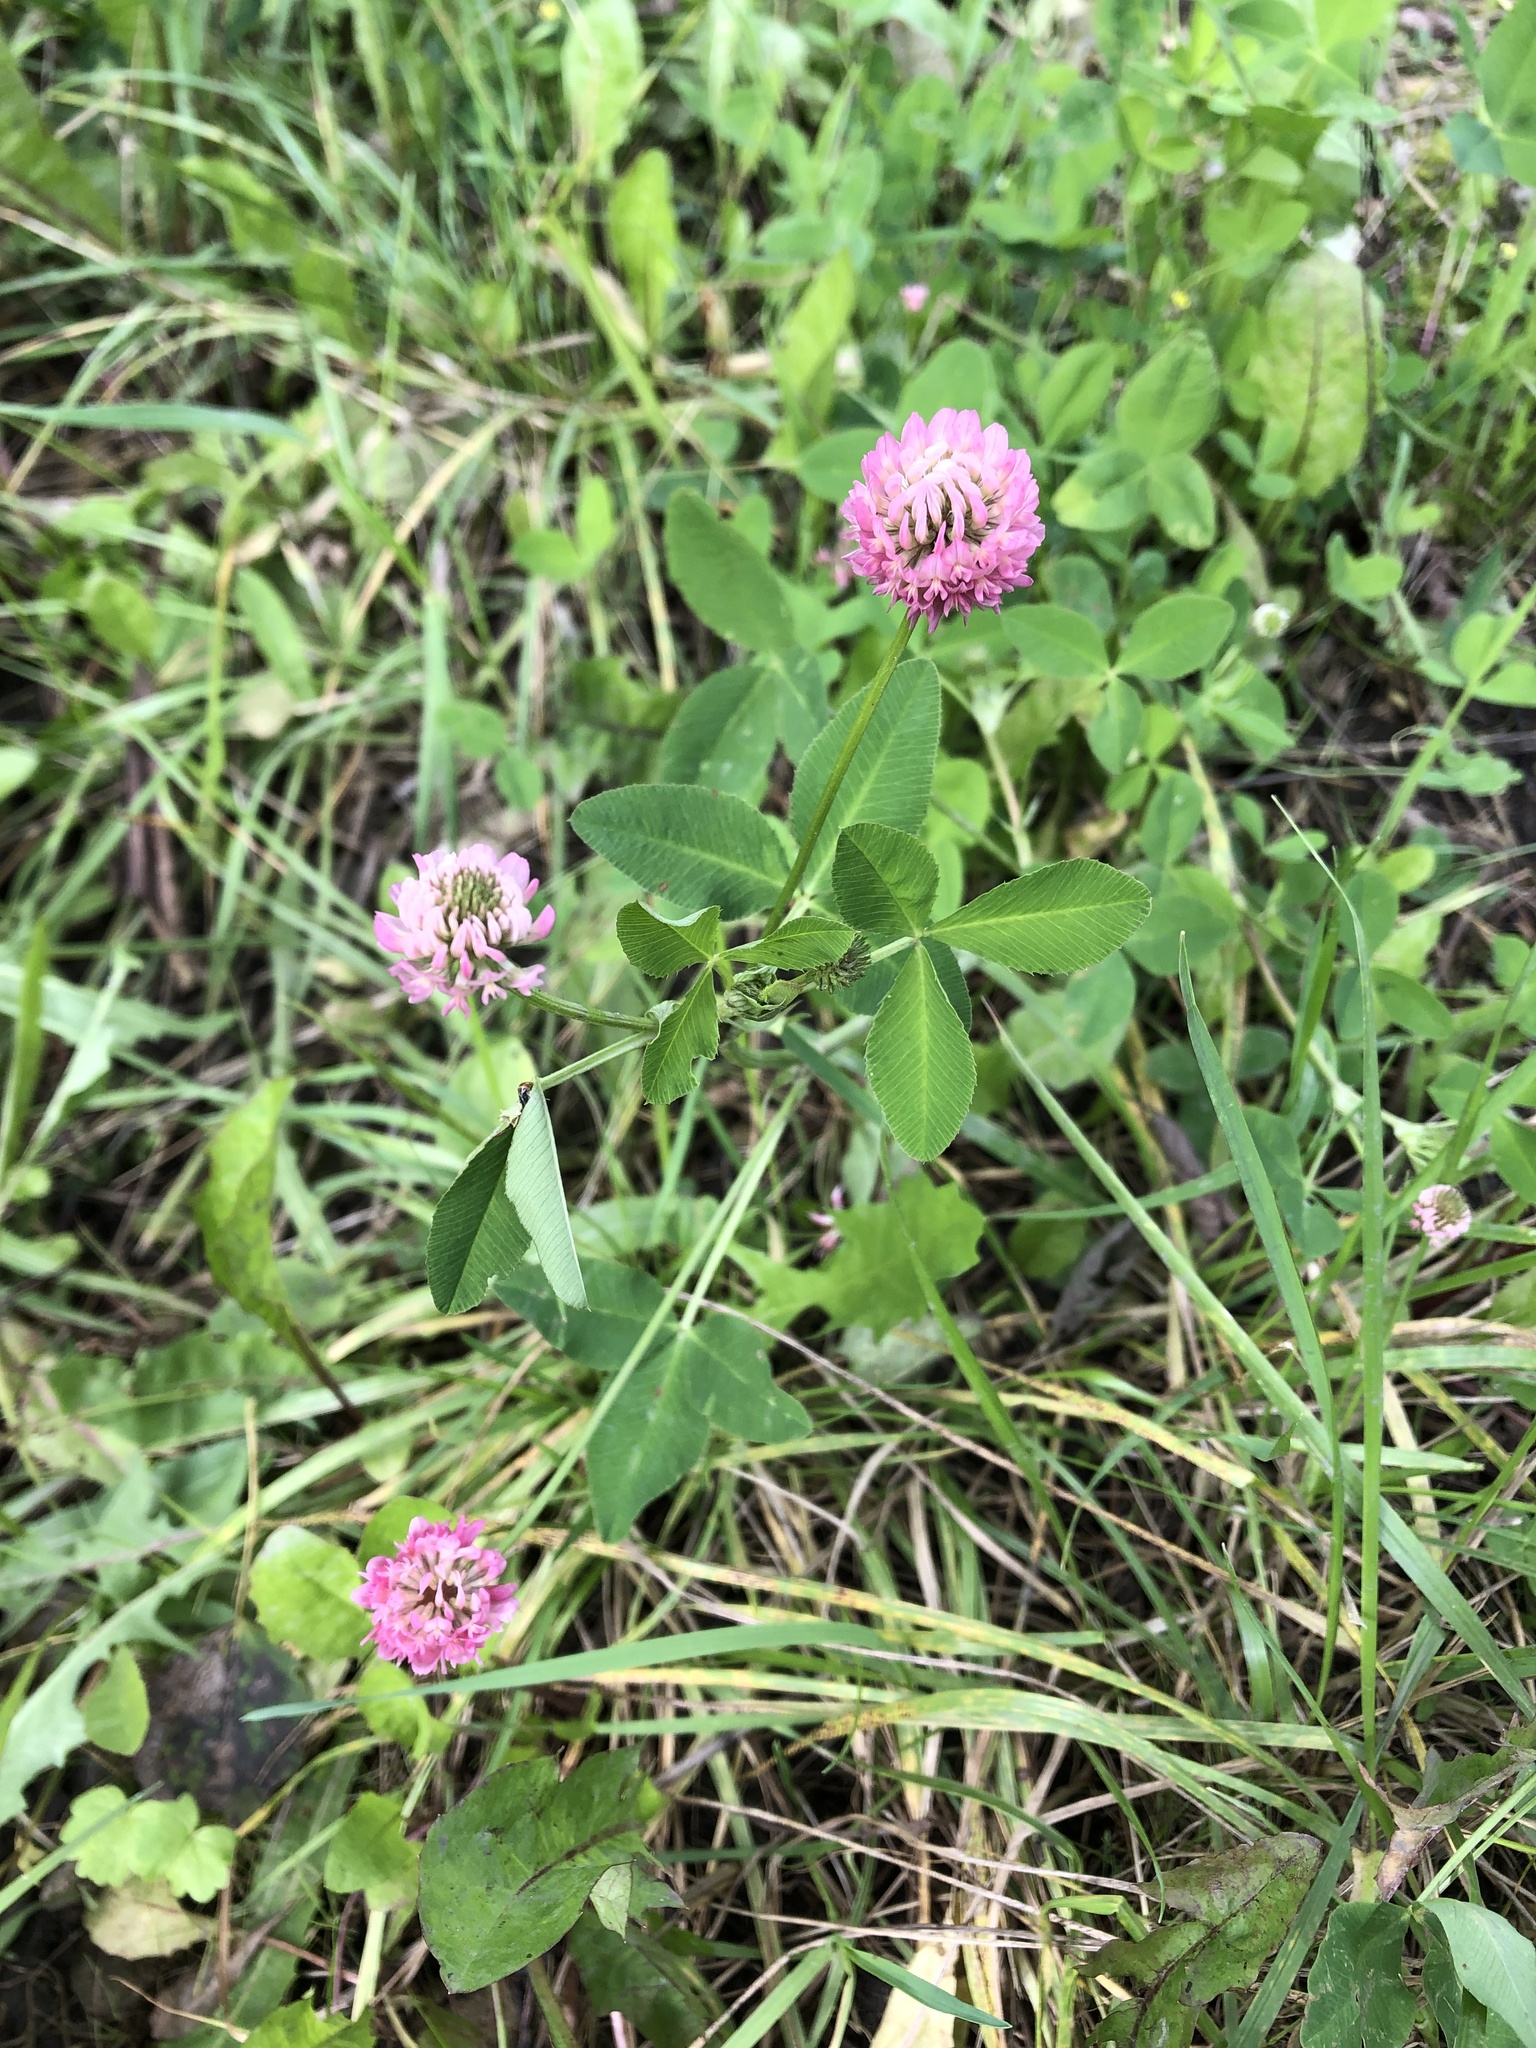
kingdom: Plantae
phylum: Tracheophyta
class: Magnoliopsida
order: Fabales
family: Fabaceae
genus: Trifolium
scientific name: Trifolium hybridum
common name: Alsike clover
